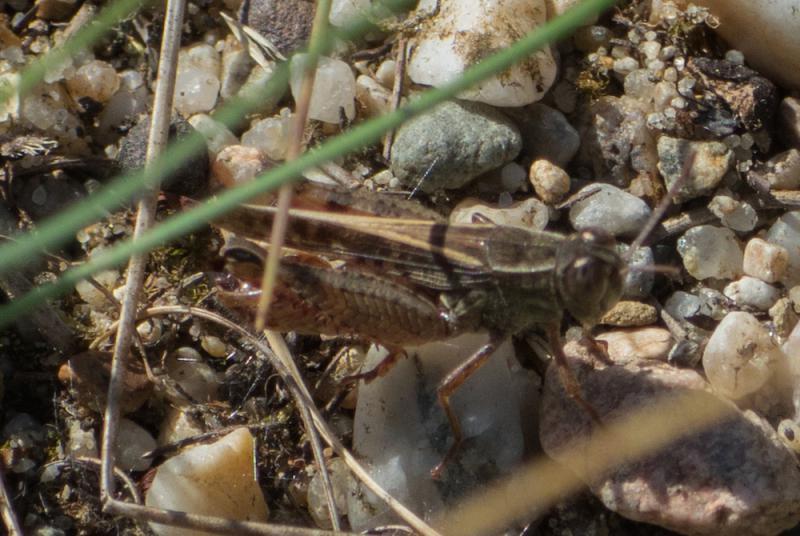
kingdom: Animalia
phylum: Arthropoda
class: Insecta
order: Orthoptera
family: Acrididae
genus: Calliptamus
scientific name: Calliptamus italicus
